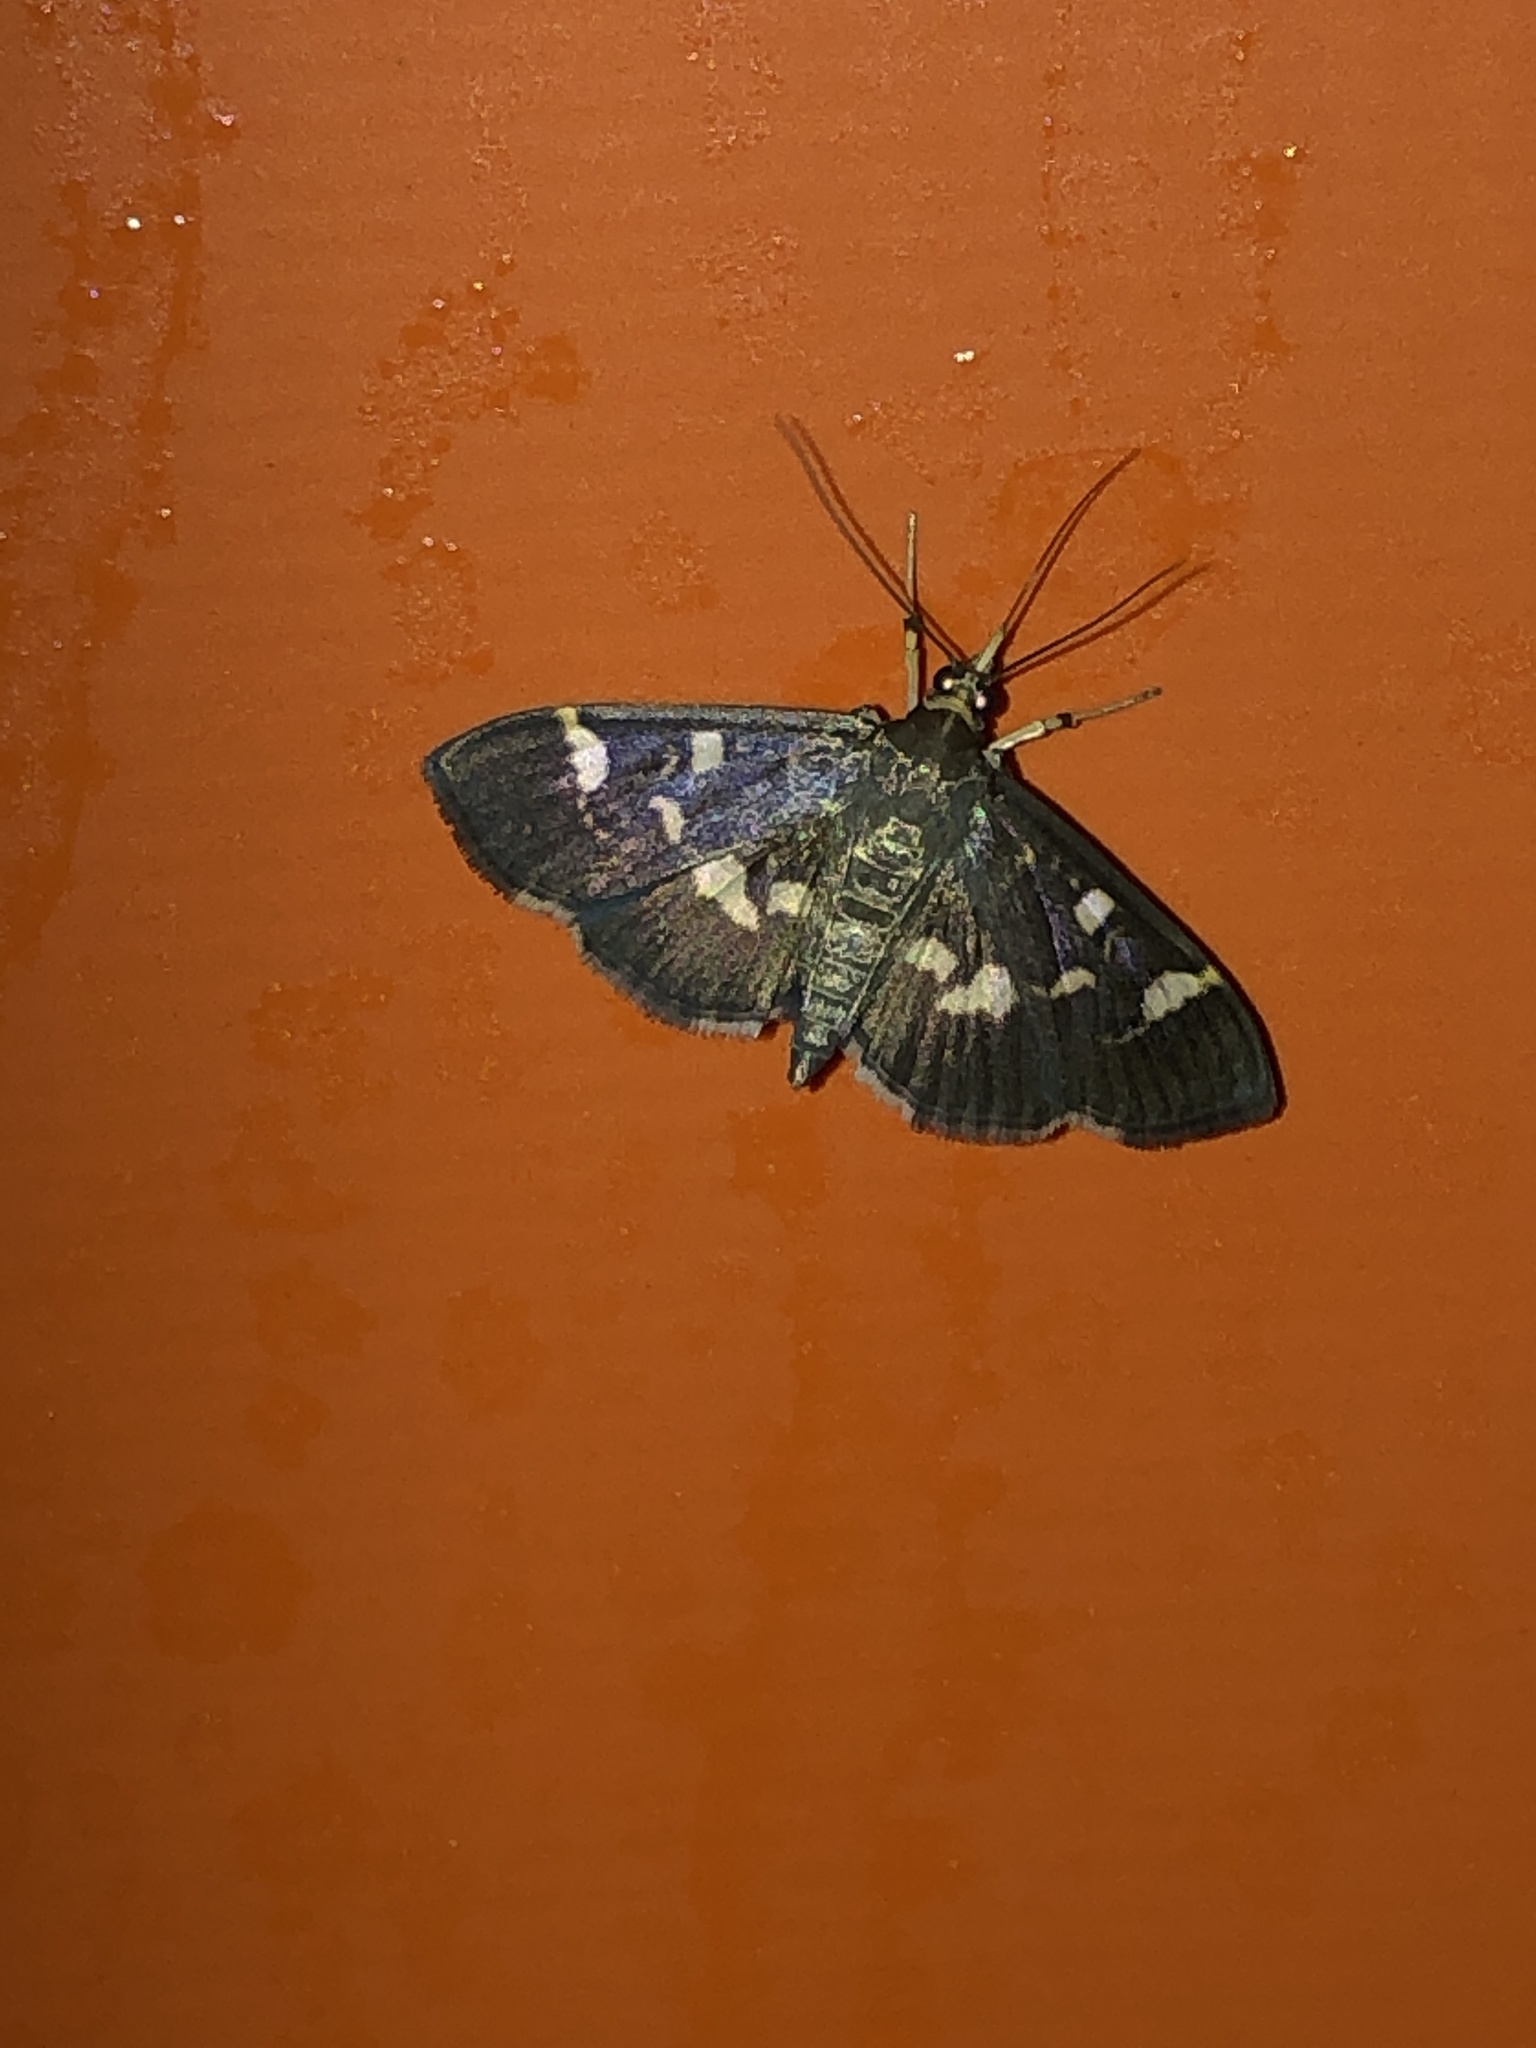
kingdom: Animalia
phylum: Arthropoda
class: Insecta
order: Lepidoptera
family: Crambidae
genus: Herpetogramma
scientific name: Herpetogramma luctuosalis
